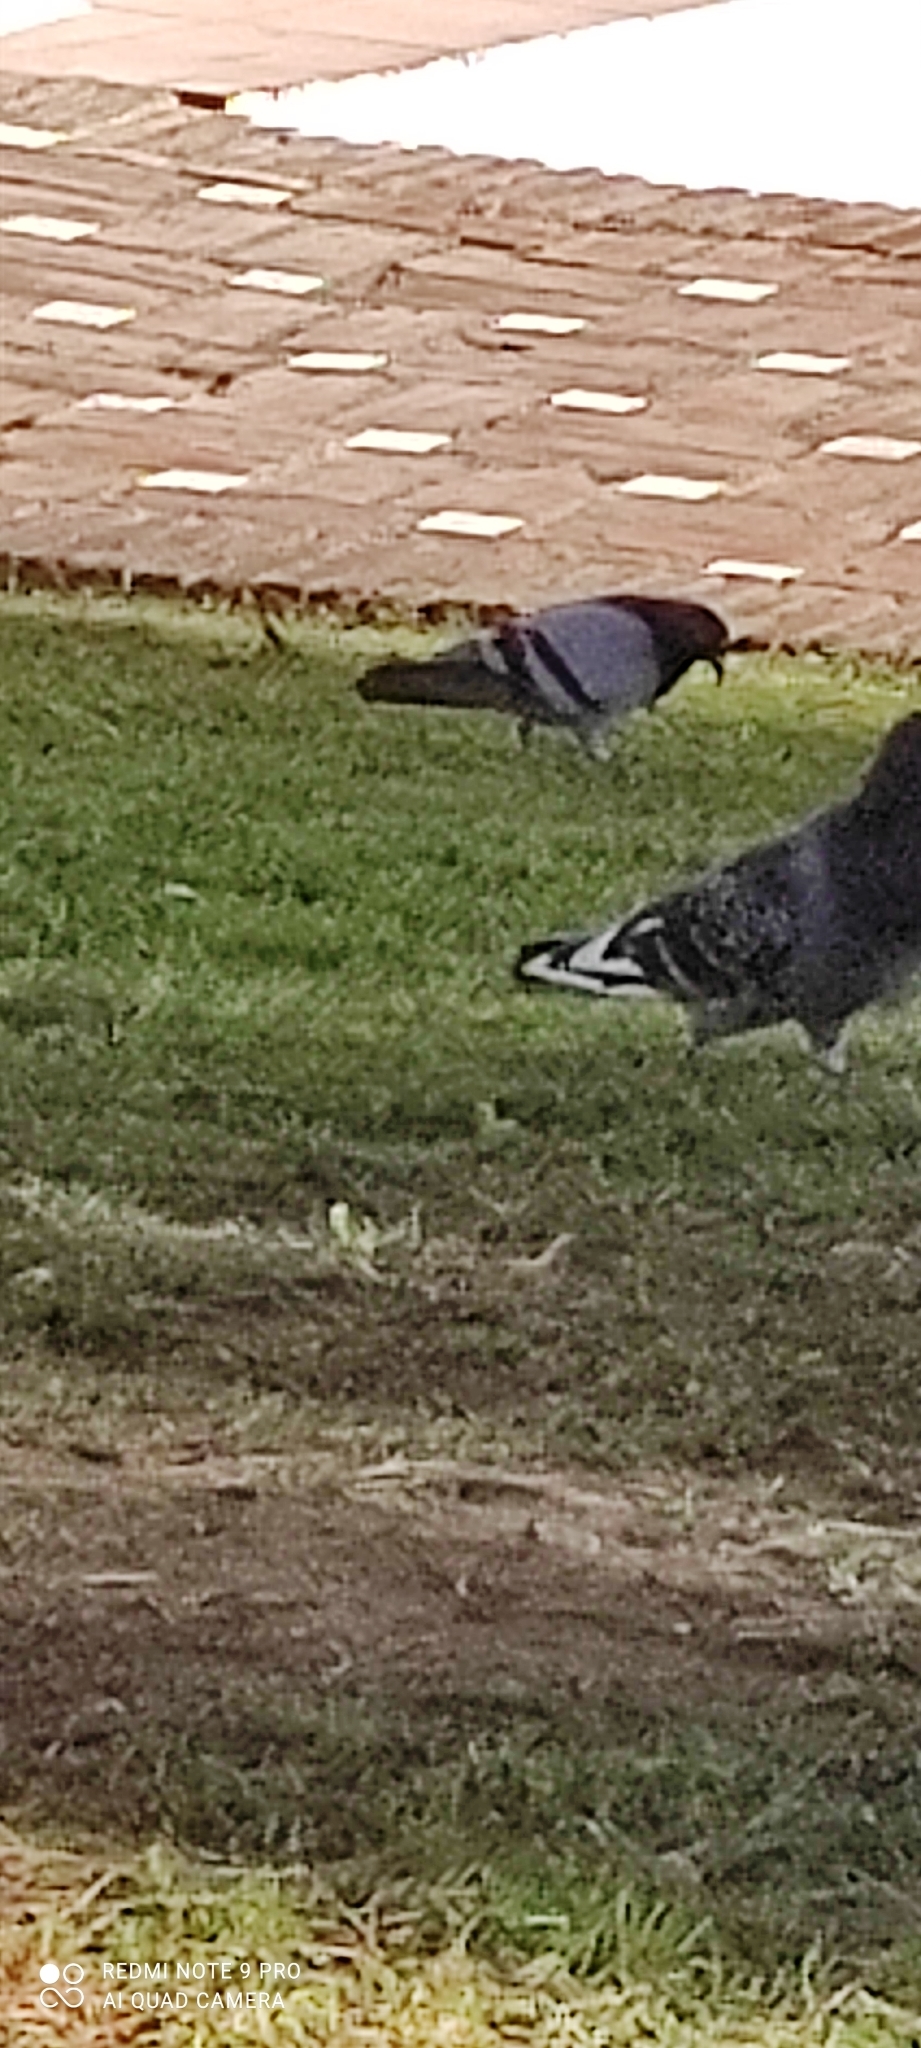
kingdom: Animalia
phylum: Chordata
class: Aves
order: Columbiformes
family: Columbidae
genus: Columba
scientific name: Columba livia
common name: Rock pigeon
